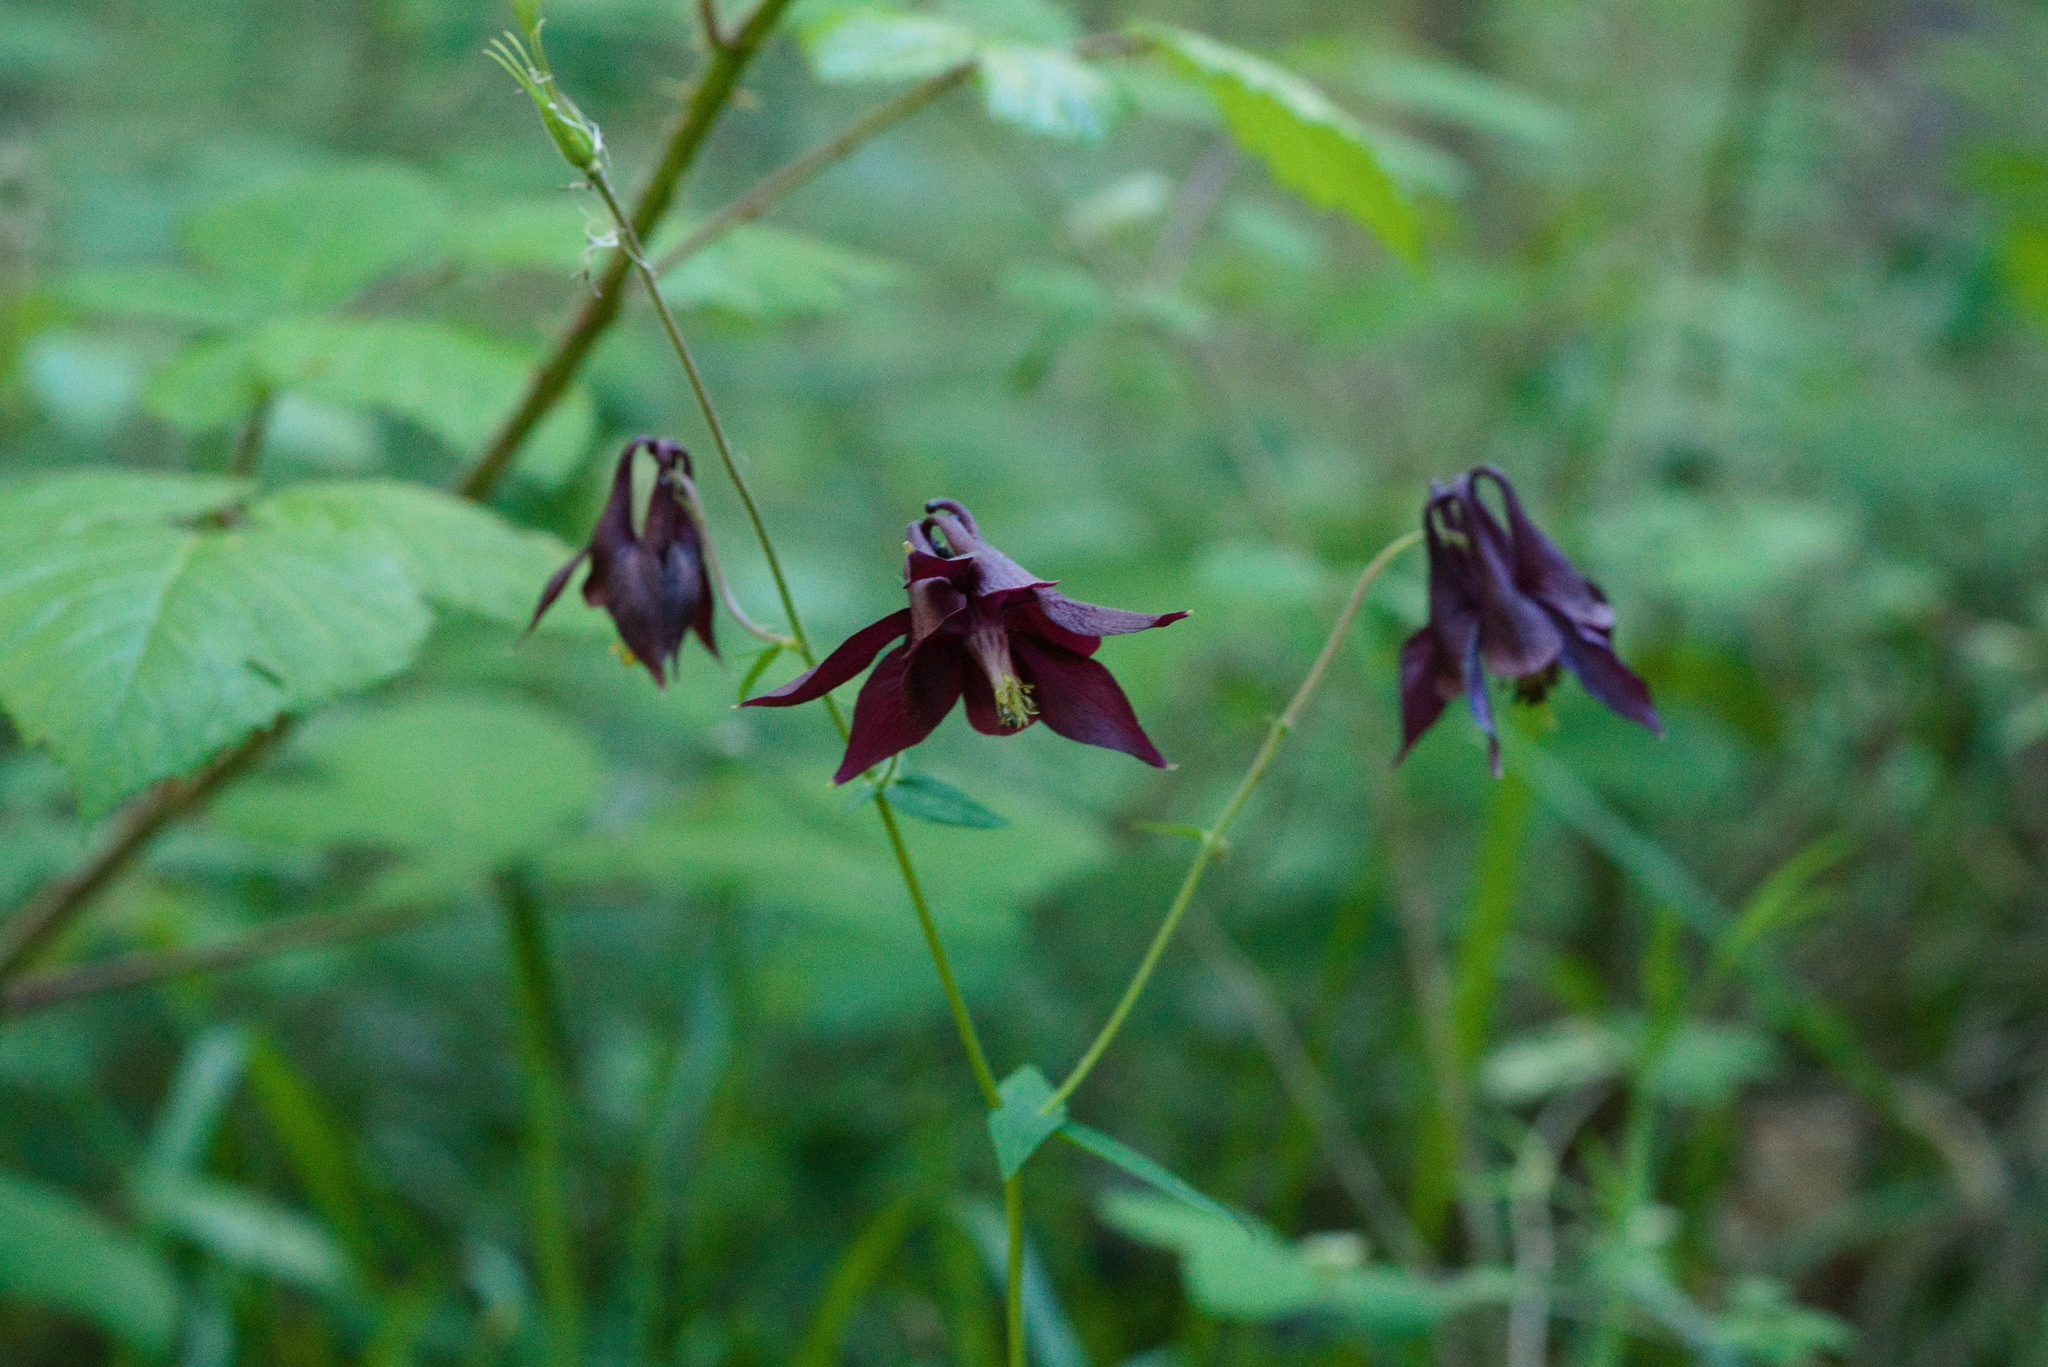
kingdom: Plantae
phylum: Tracheophyta
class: Magnoliopsida
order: Ranunculales
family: Ranunculaceae
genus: Aquilegia
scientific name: Aquilegia atrata
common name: Dark columbine
